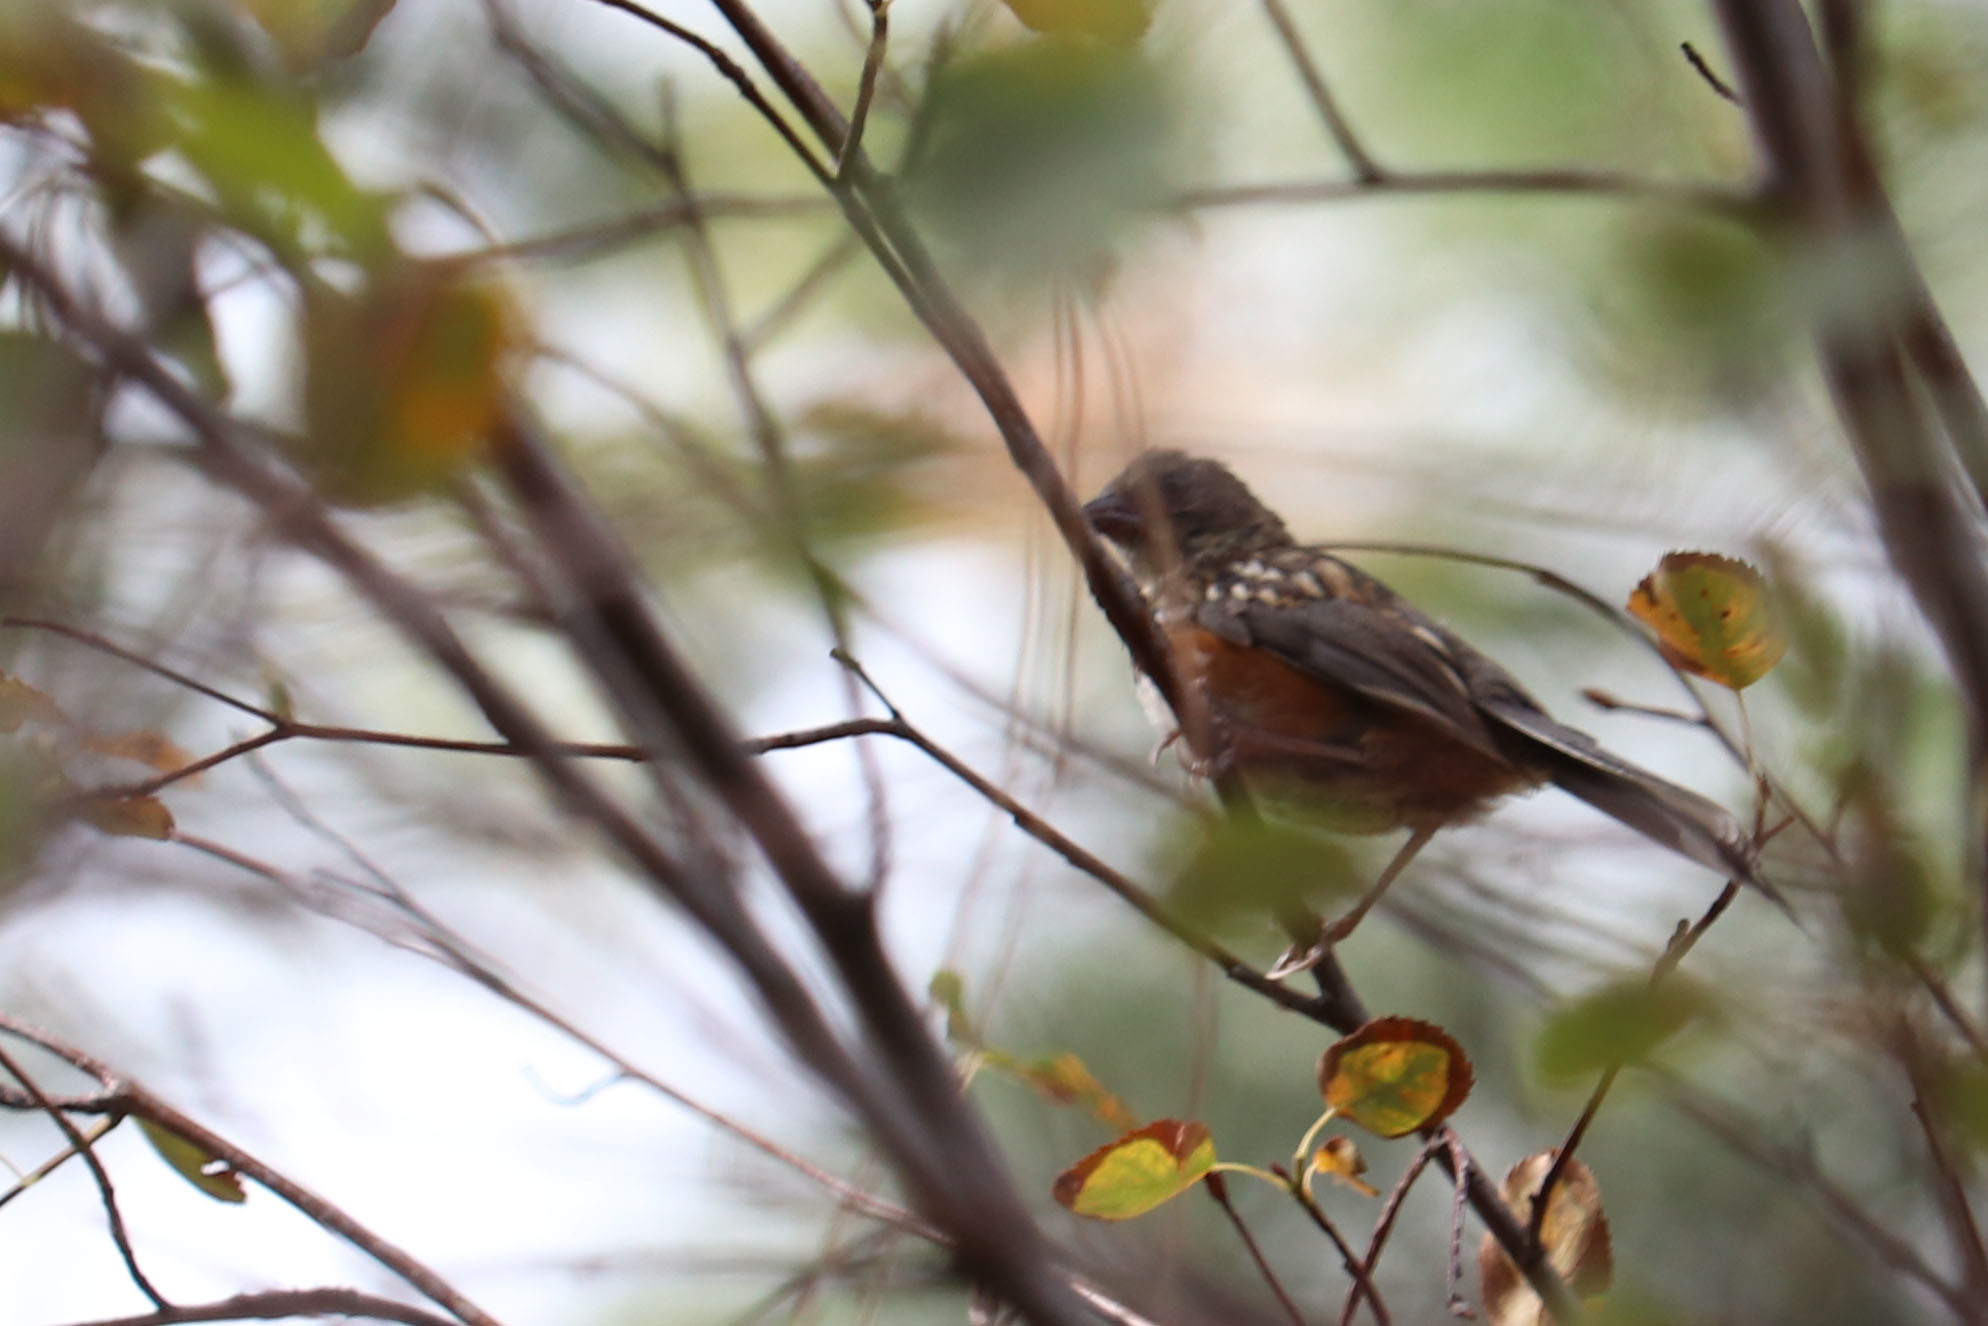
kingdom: Animalia
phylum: Chordata
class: Aves
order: Passeriformes
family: Passerellidae
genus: Pipilo
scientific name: Pipilo maculatus
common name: Spotted towhee
